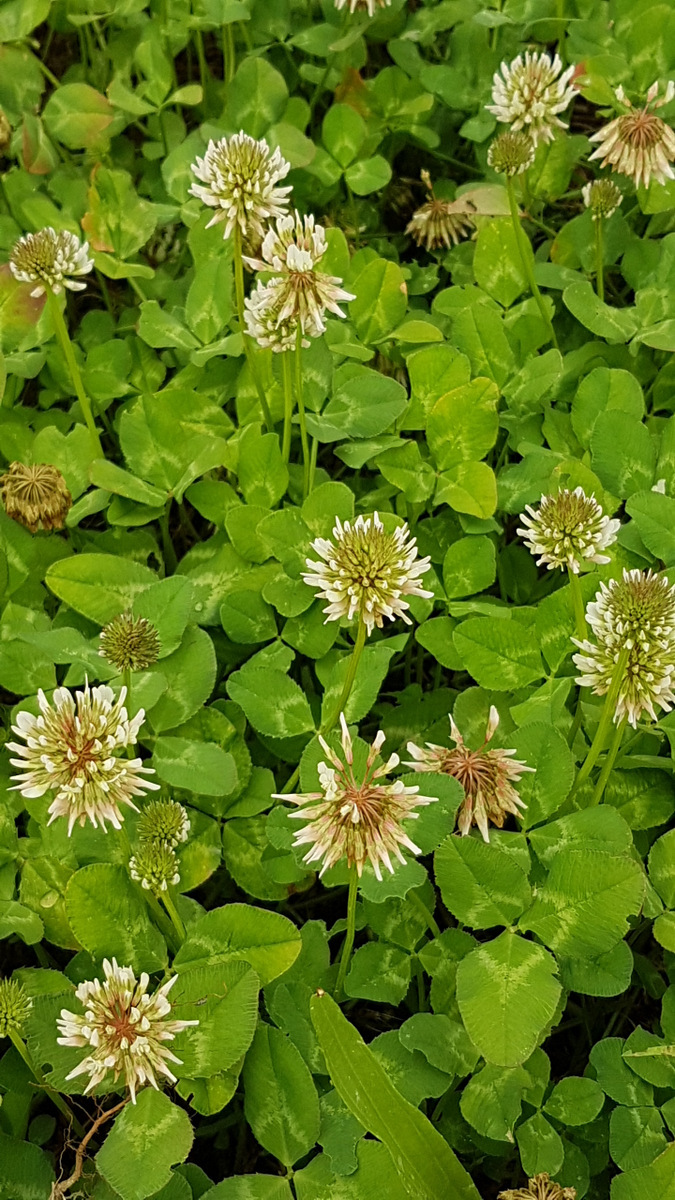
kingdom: Plantae
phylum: Tracheophyta
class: Magnoliopsida
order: Fabales
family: Fabaceae
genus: Trifolium
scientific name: Trifolium repens
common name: White clover
